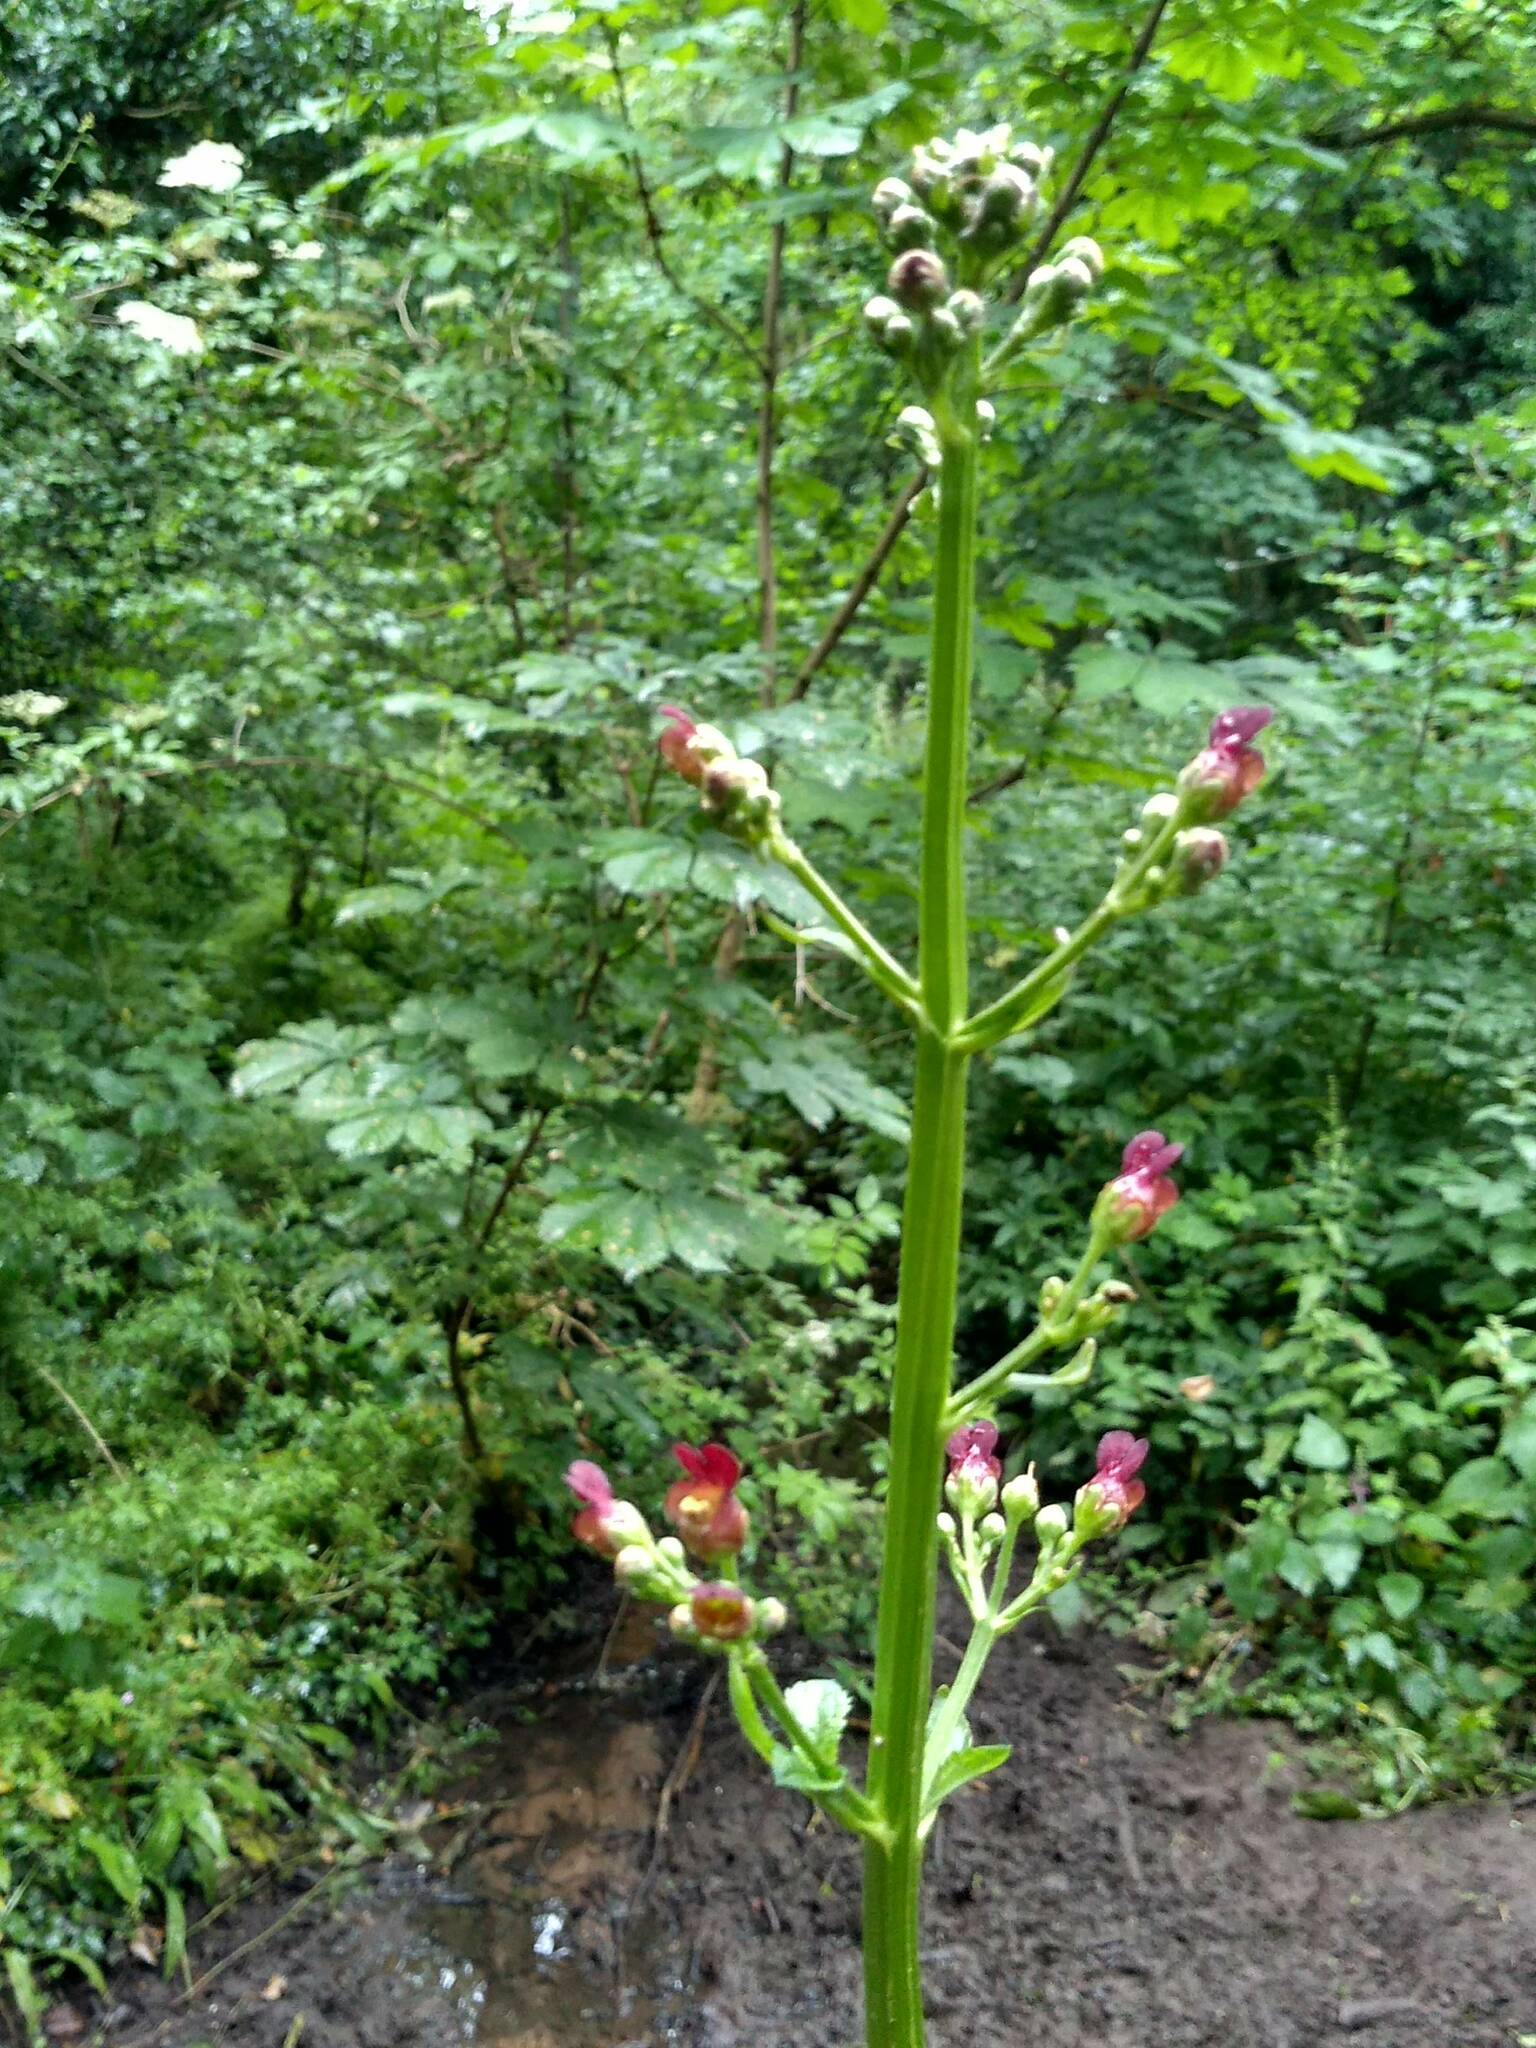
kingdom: Plantae
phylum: Tracheophyta
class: Magnoliopsida
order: Lamiales
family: Scrophulariaceae
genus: Scrophularia
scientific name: Scrophularia auriculata
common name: Water betony
